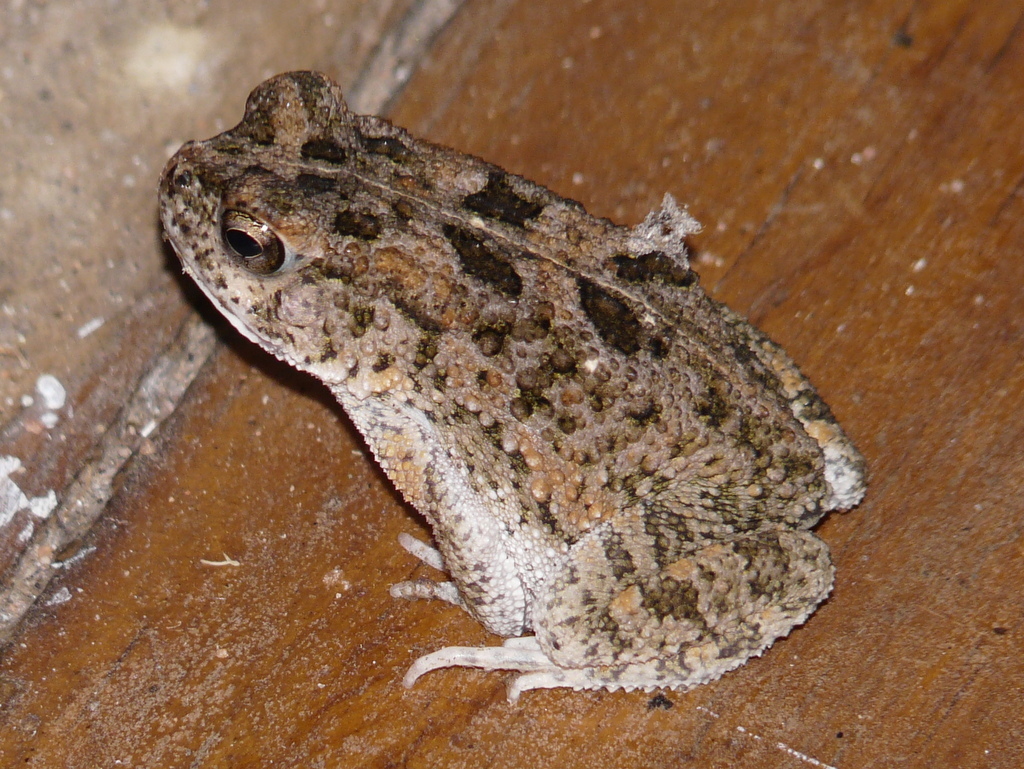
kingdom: Animalia
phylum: Chordata
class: Amphibia
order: Anura
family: Bufonidae
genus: Sclerophrys
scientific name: Sclerophrys gutturalis
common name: African common toad
